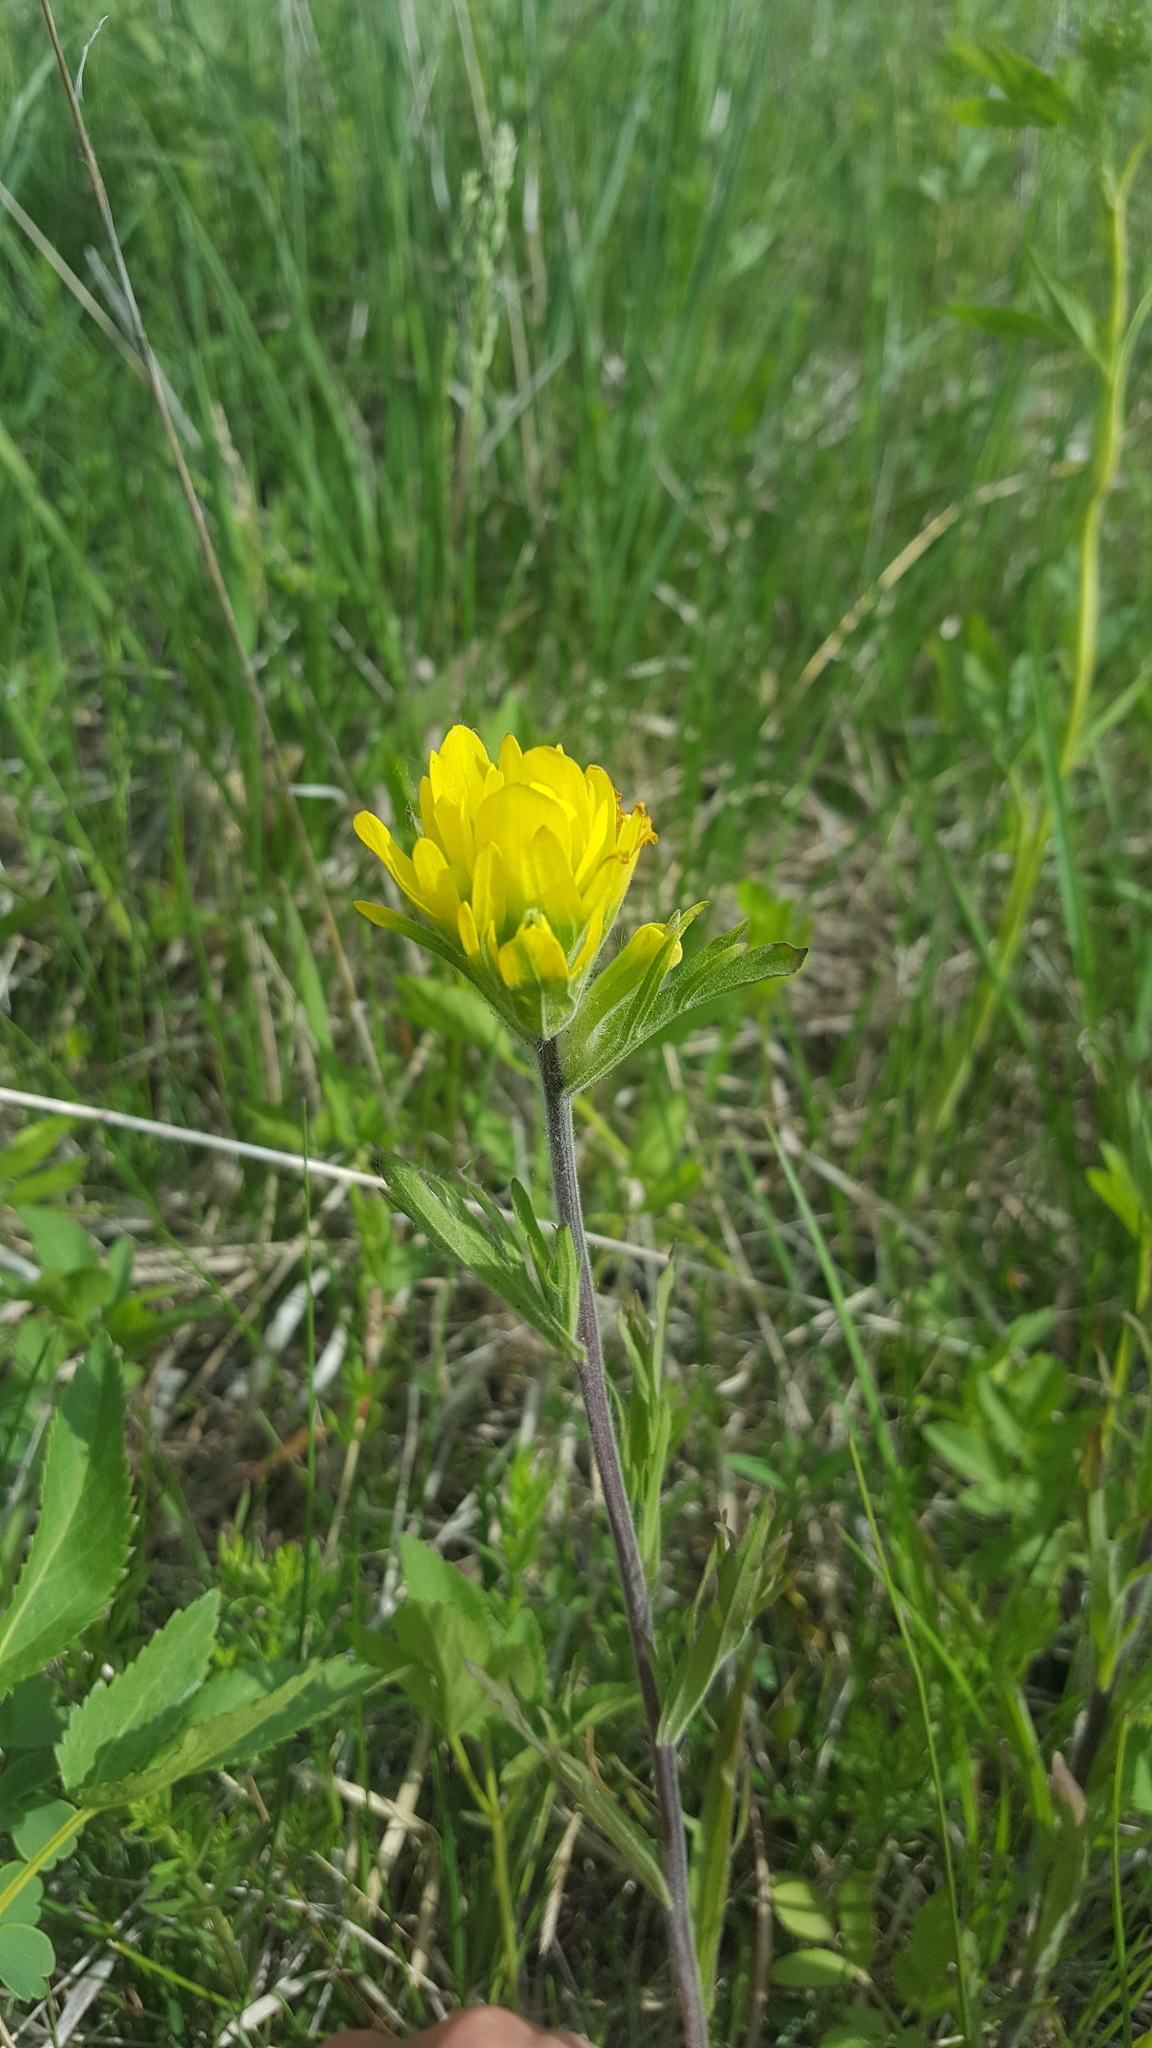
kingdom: Plantae
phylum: Tracheophyta
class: Magnoliopsida
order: Lamiales
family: Orobanchaceae
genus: Castilleja
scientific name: Castilleja coccinea
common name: Scarlet paintbrush
